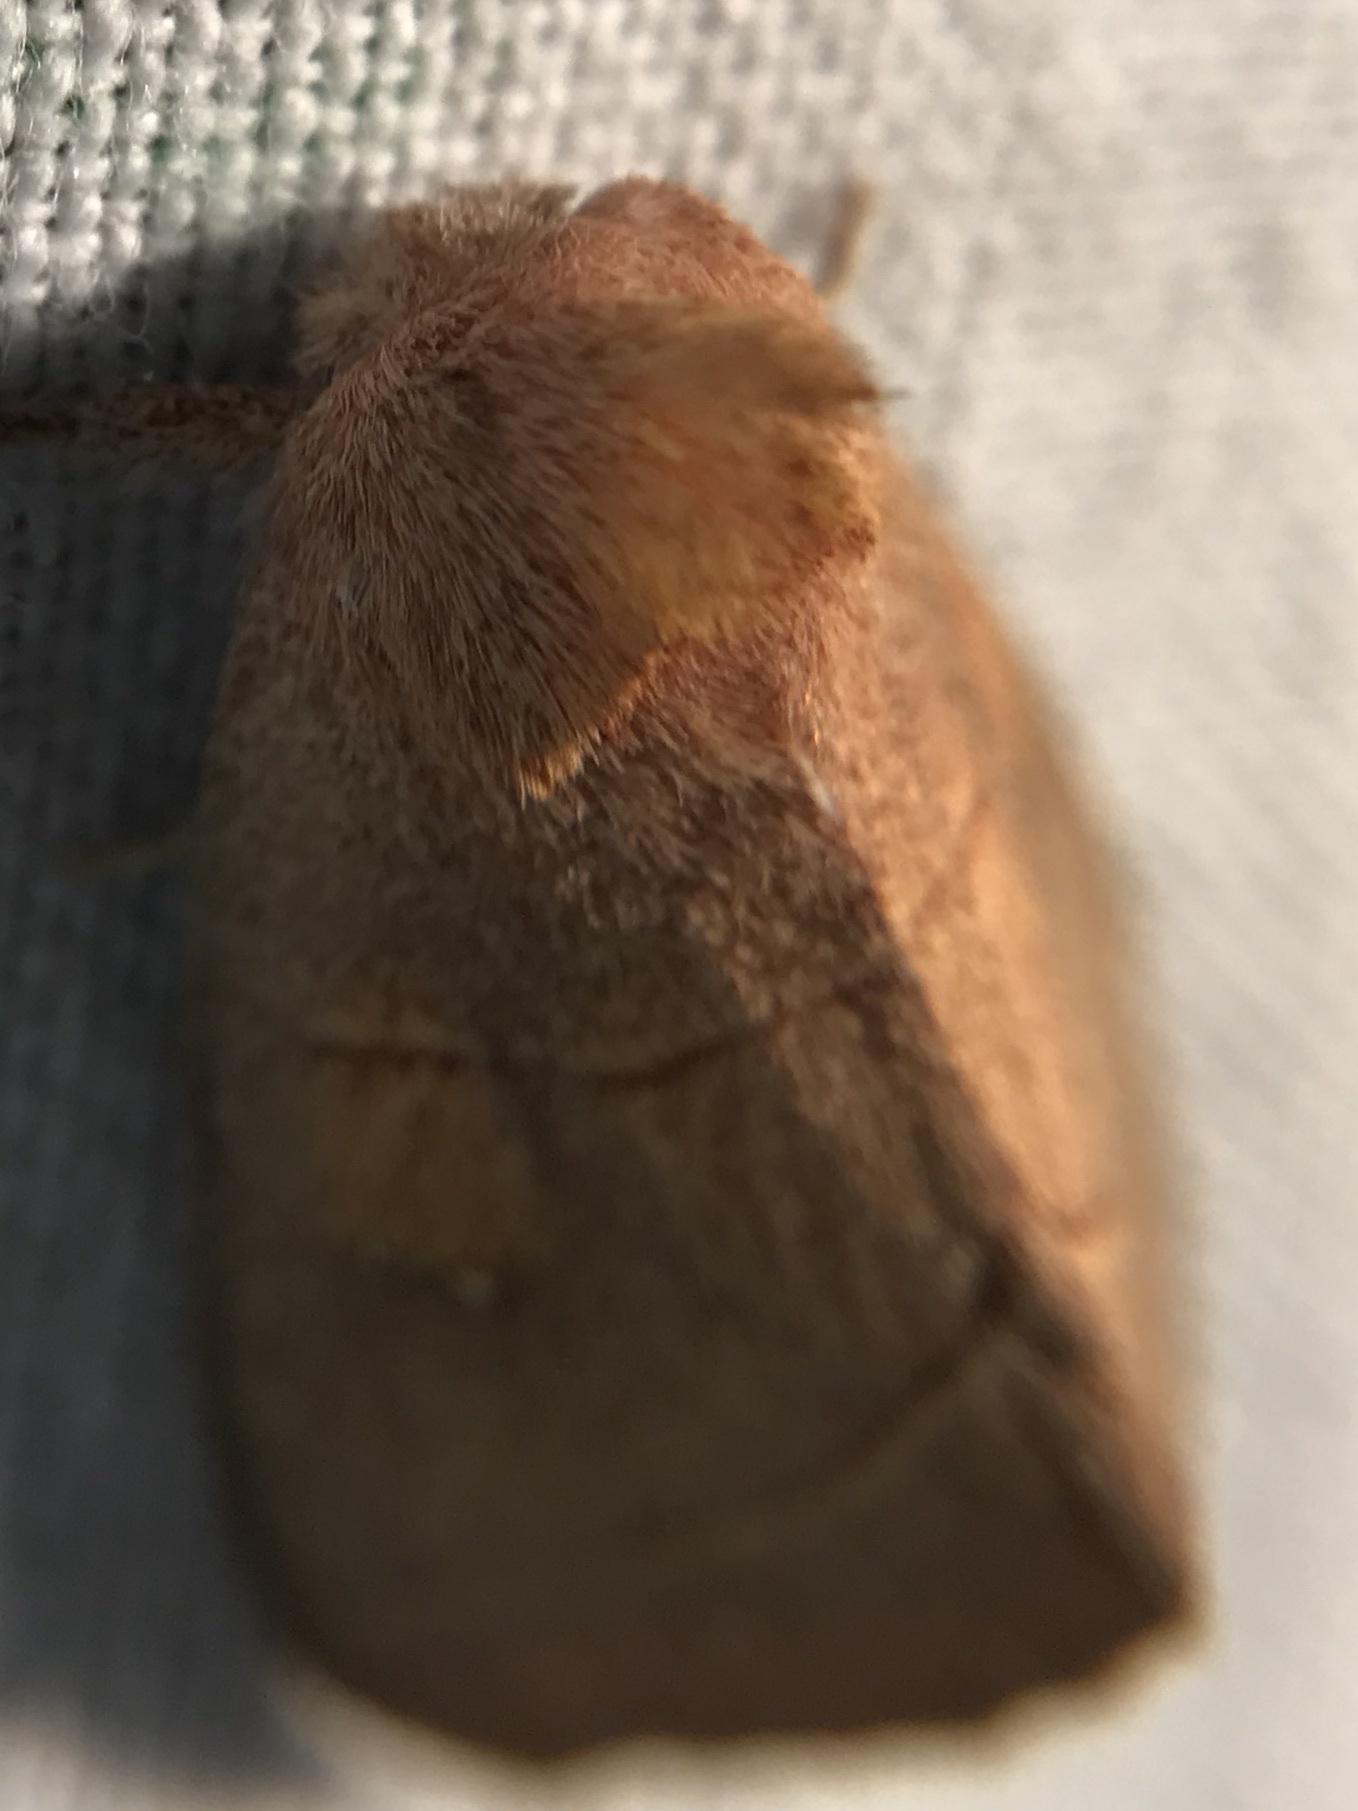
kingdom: Animalia
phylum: Arthropoda
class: Insecta
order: Lepidoptera
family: Notodontidae
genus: Nadata
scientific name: Nadata gibbosa
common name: White-dotted prominent
